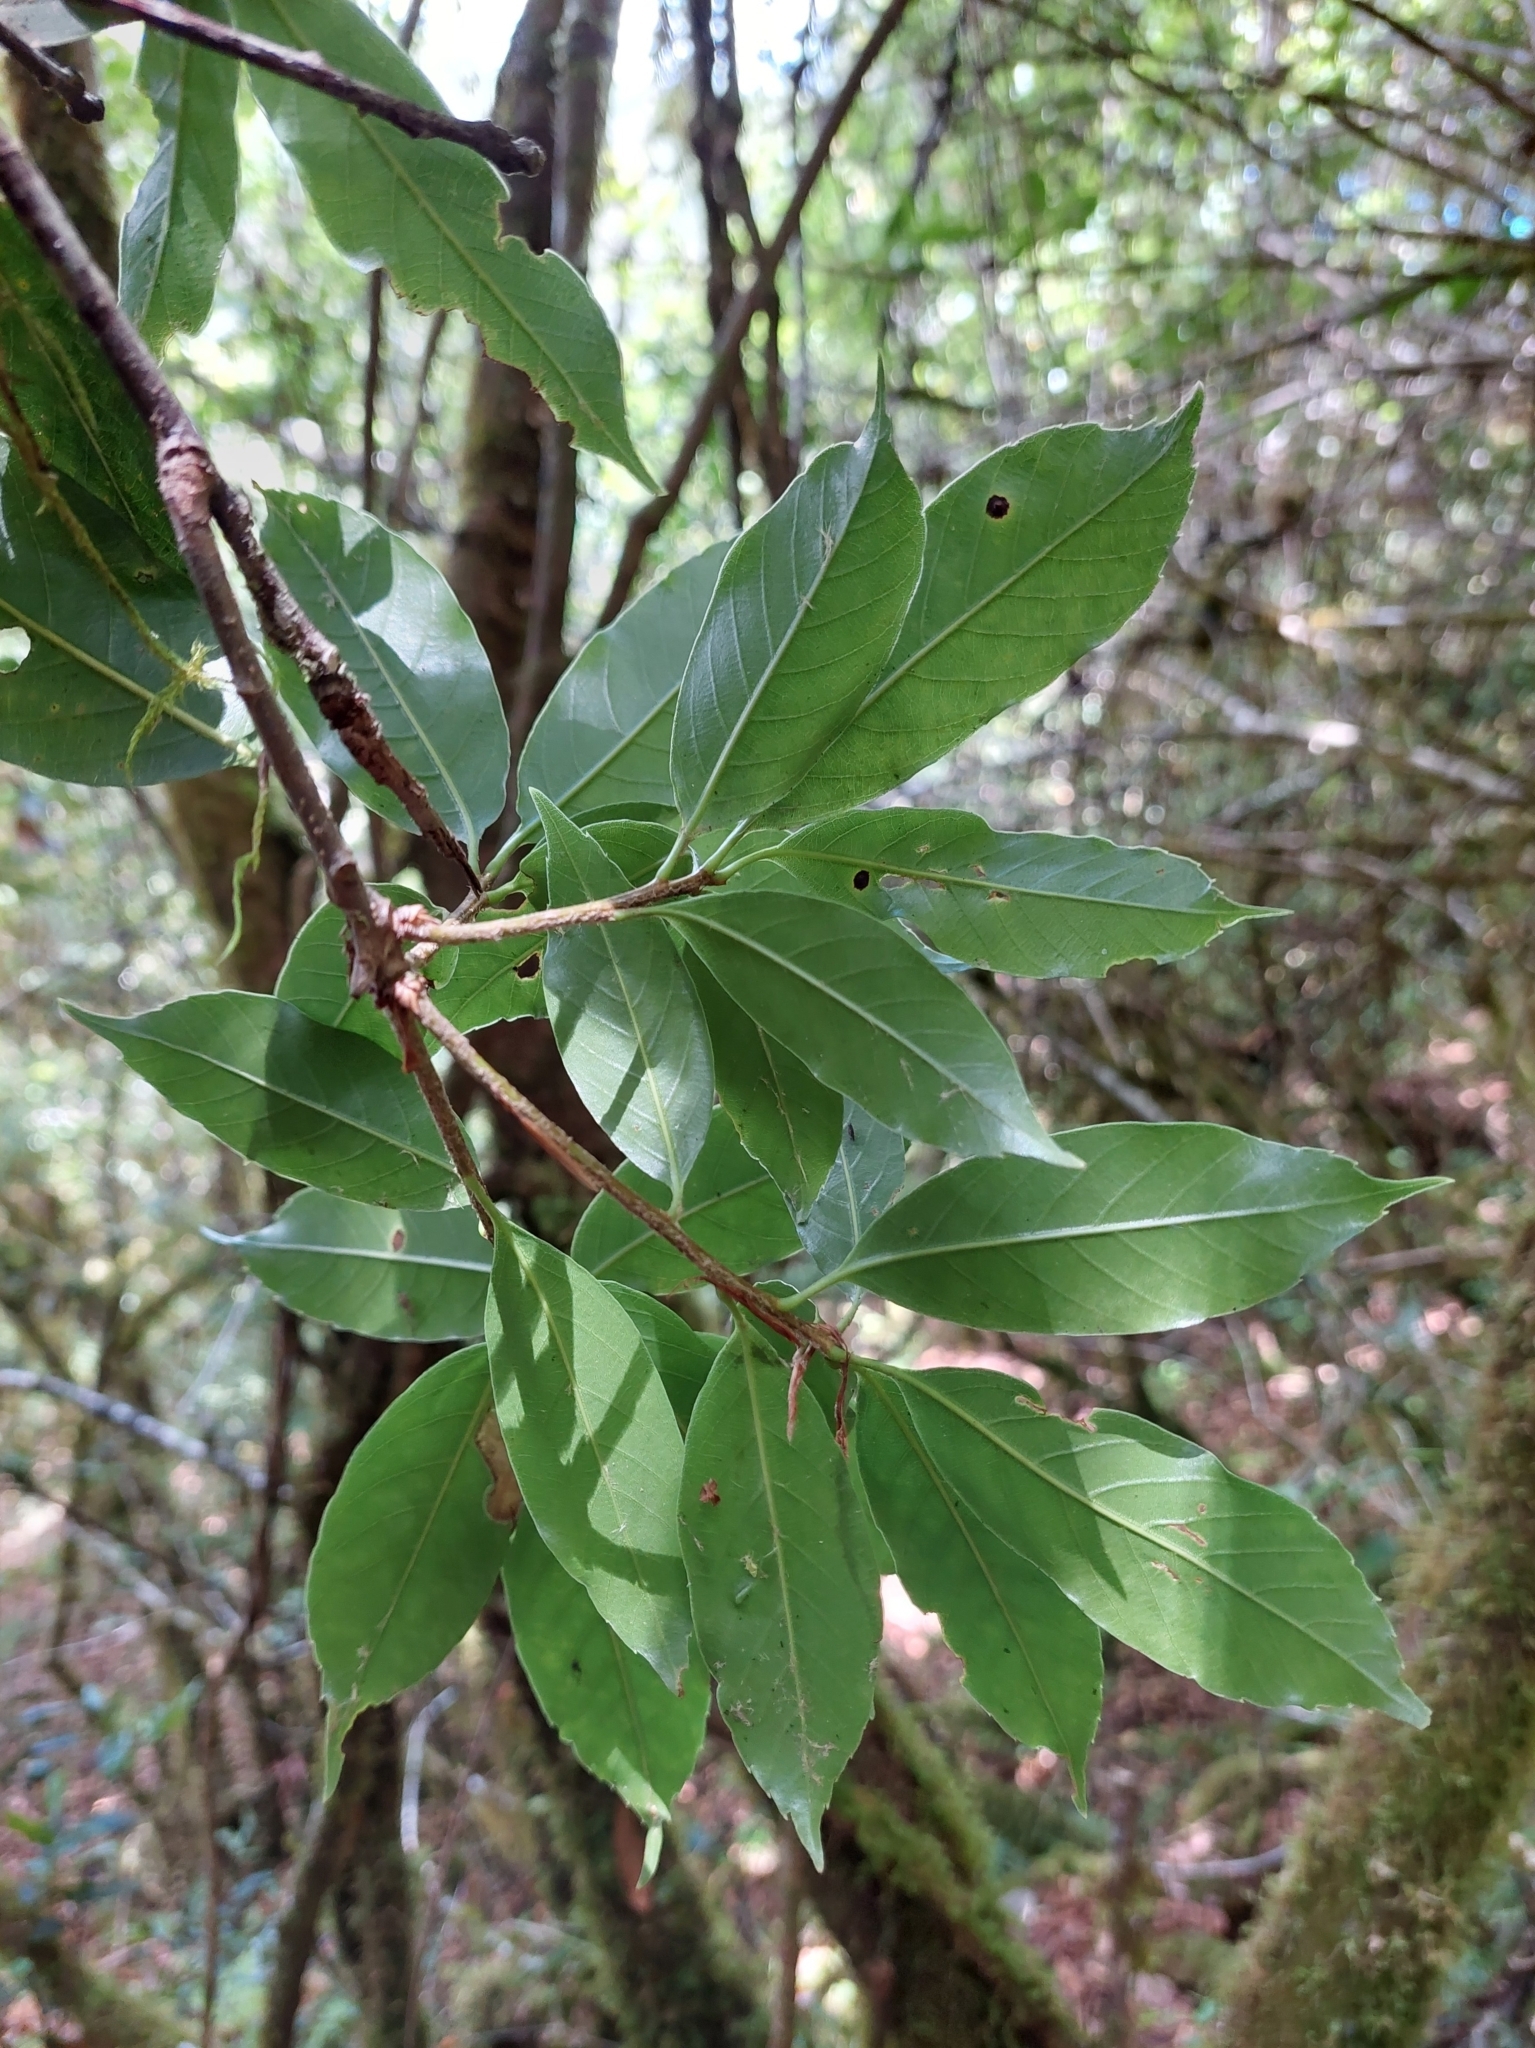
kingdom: Plantae
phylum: Tracheophyta
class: Magnoliopsida
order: Fagales
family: Fagaceae
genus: Quercus
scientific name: Quercus morii
